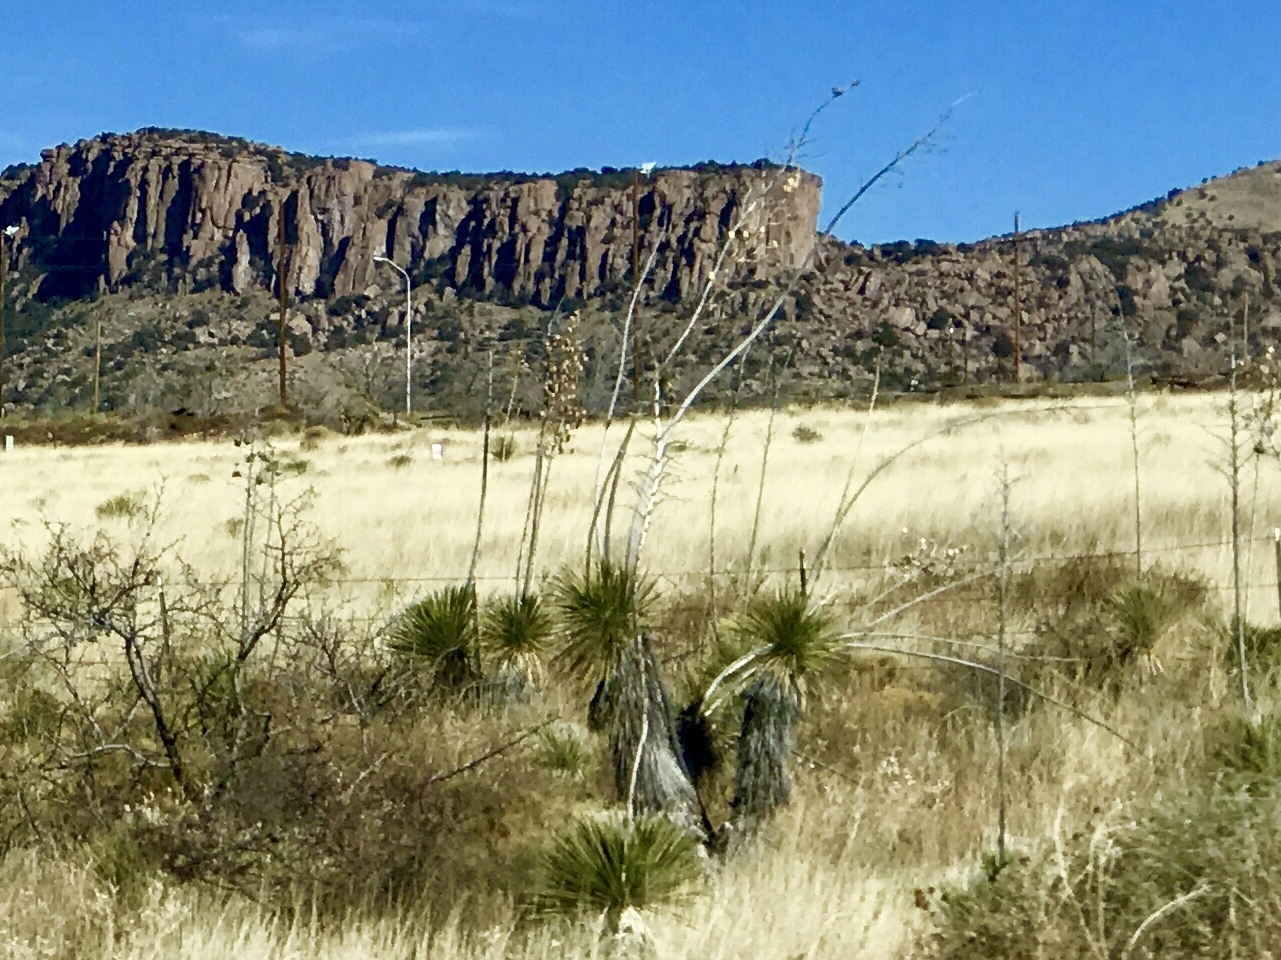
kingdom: Plantae
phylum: Tracheophyta
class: Liliopsida
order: Asparagales
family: Asparagaceae
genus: Yucca
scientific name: Yucca elata
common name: Palmella
